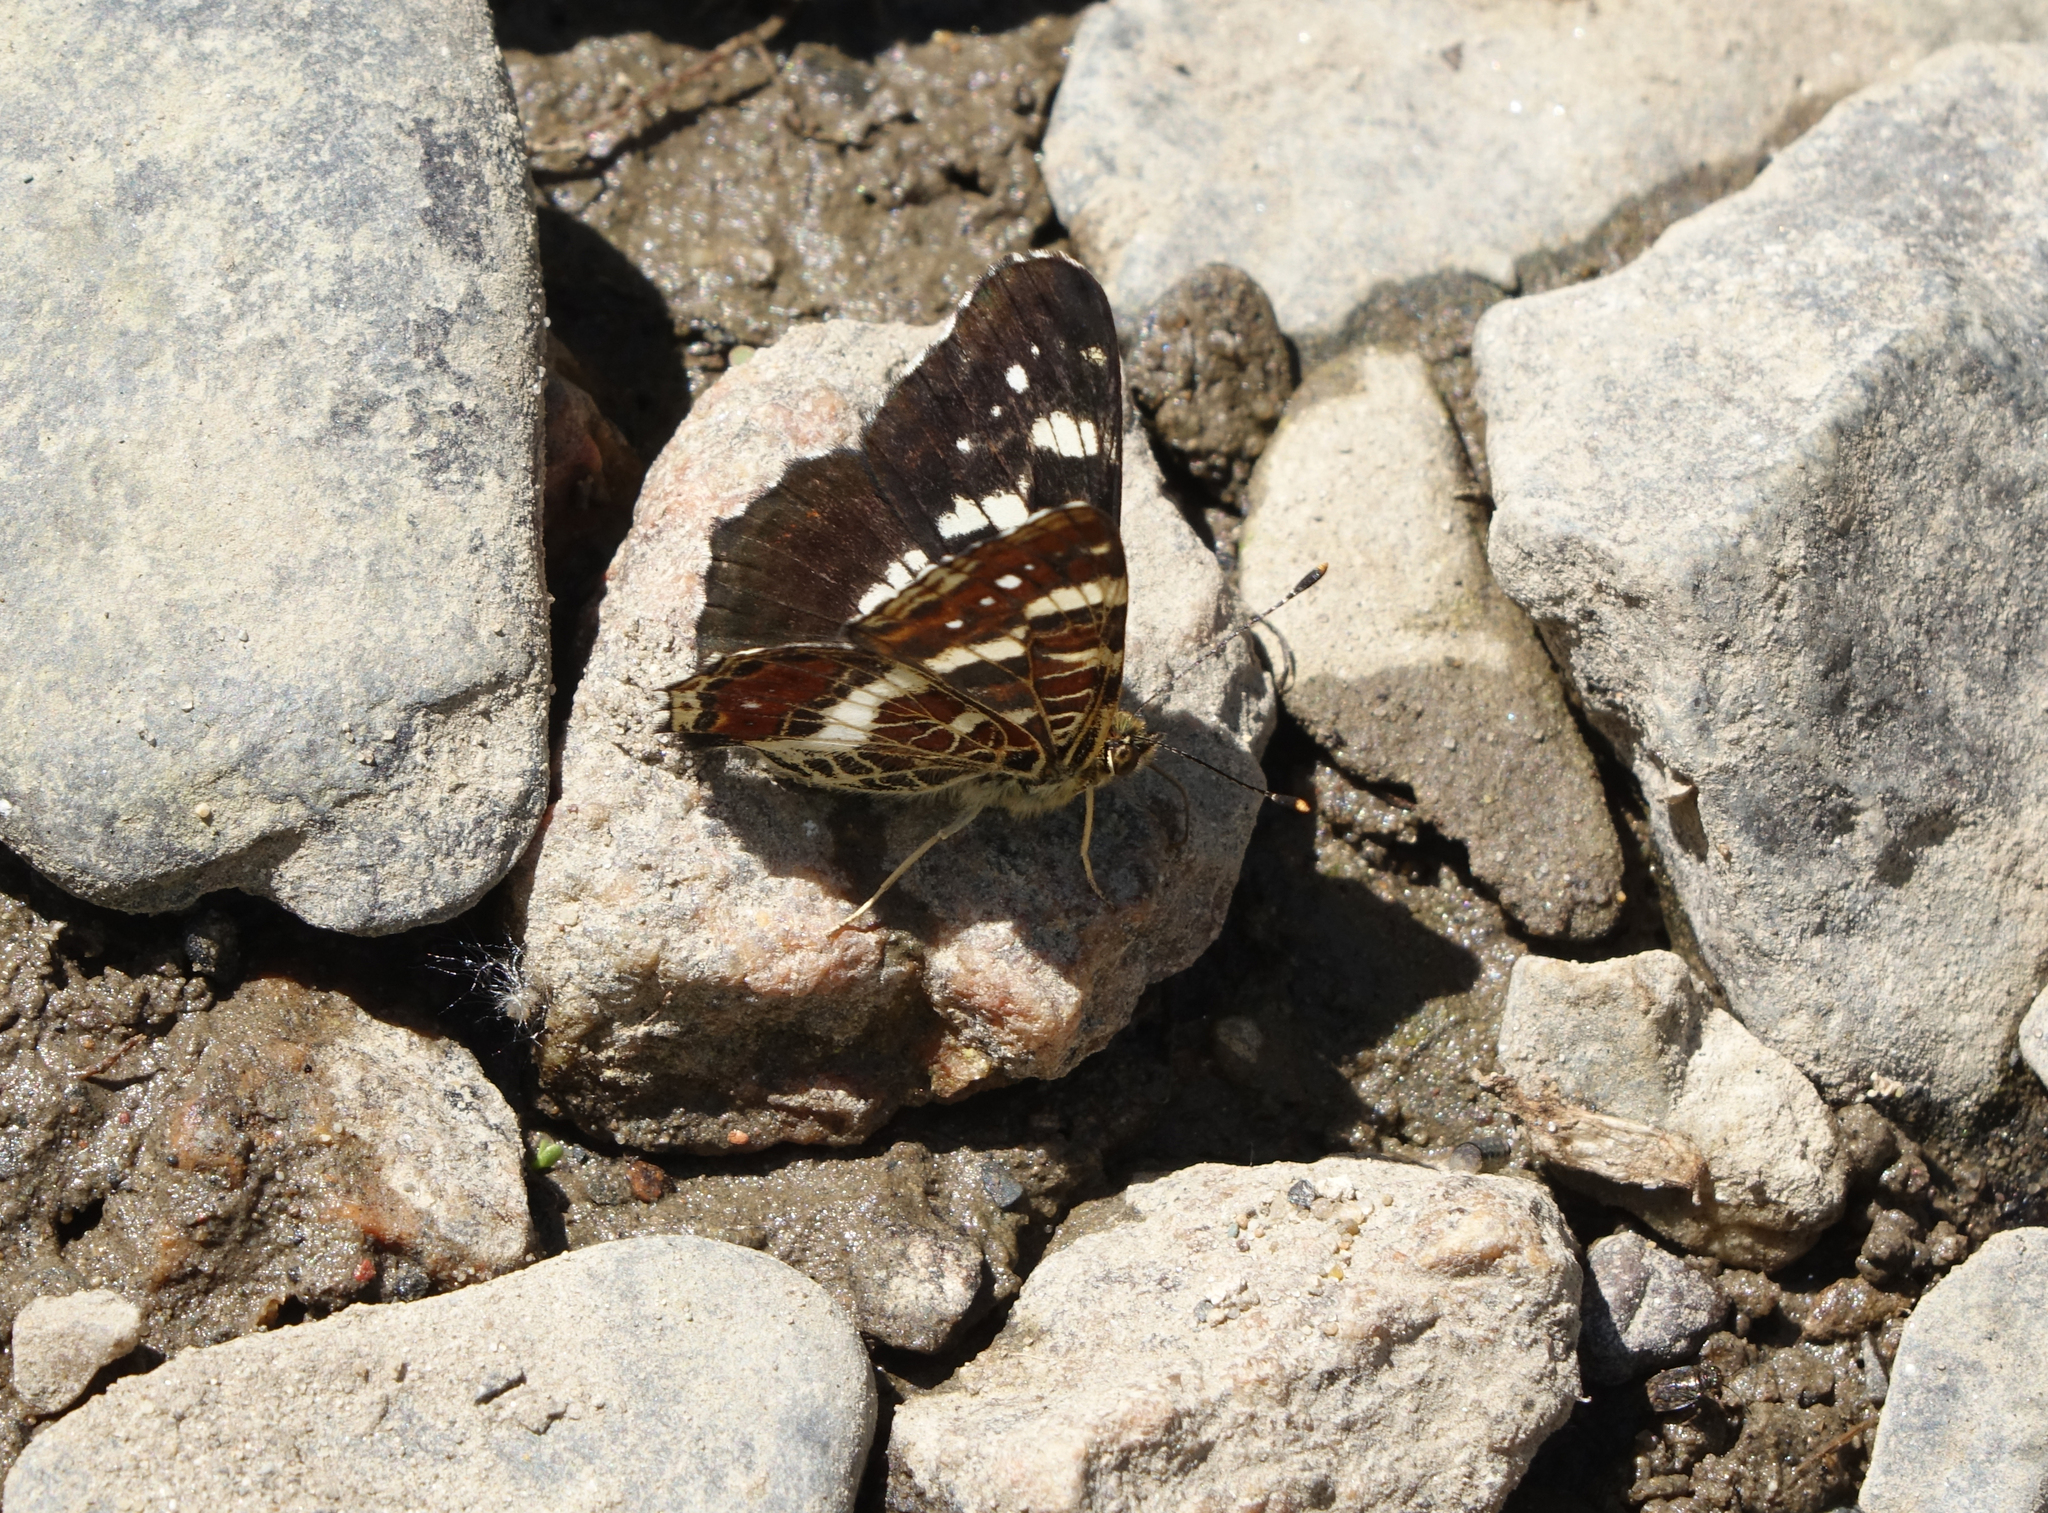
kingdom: Animalia
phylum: Arthropoda
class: Insecta
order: Lepidoptera
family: Nymphalidae
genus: Araschnia
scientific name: Araschnia levana
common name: Map butterfly
